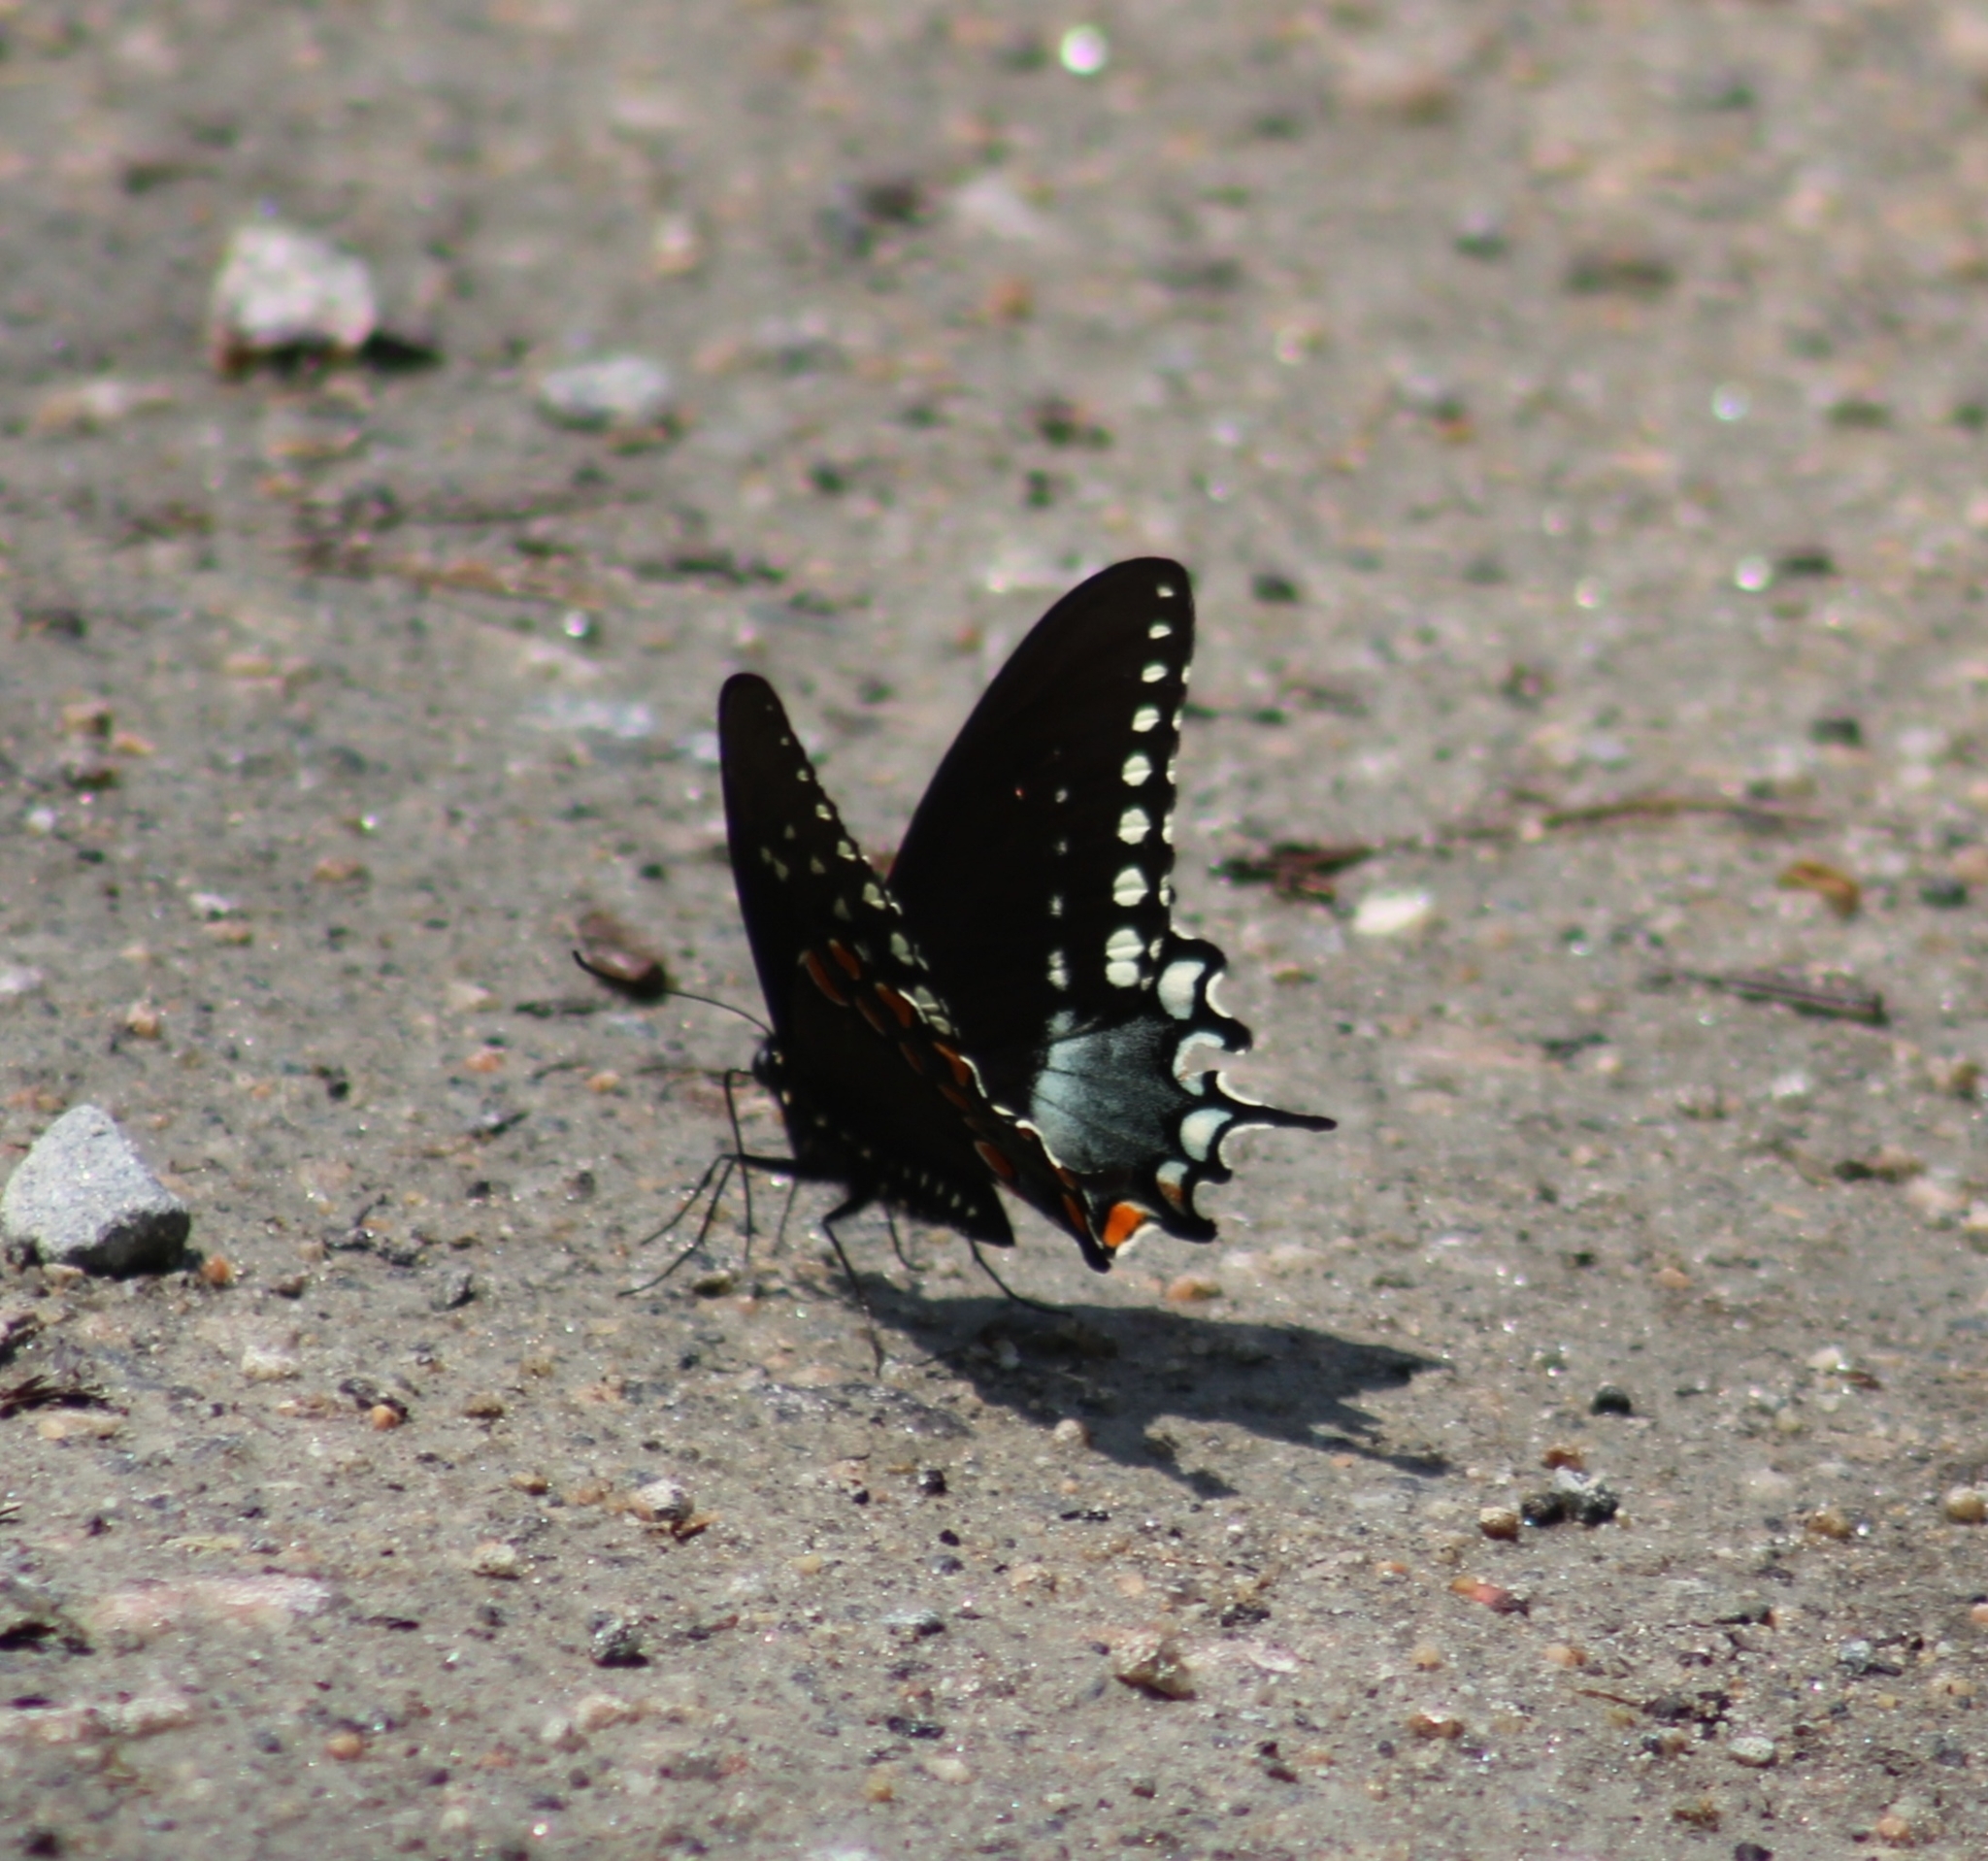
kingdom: Animalia
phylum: Arthropoda
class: Insecta
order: Lepidoptera
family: Papilionidae
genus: Papilio
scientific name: Papilio troilus
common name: Spicebush swallowtail
